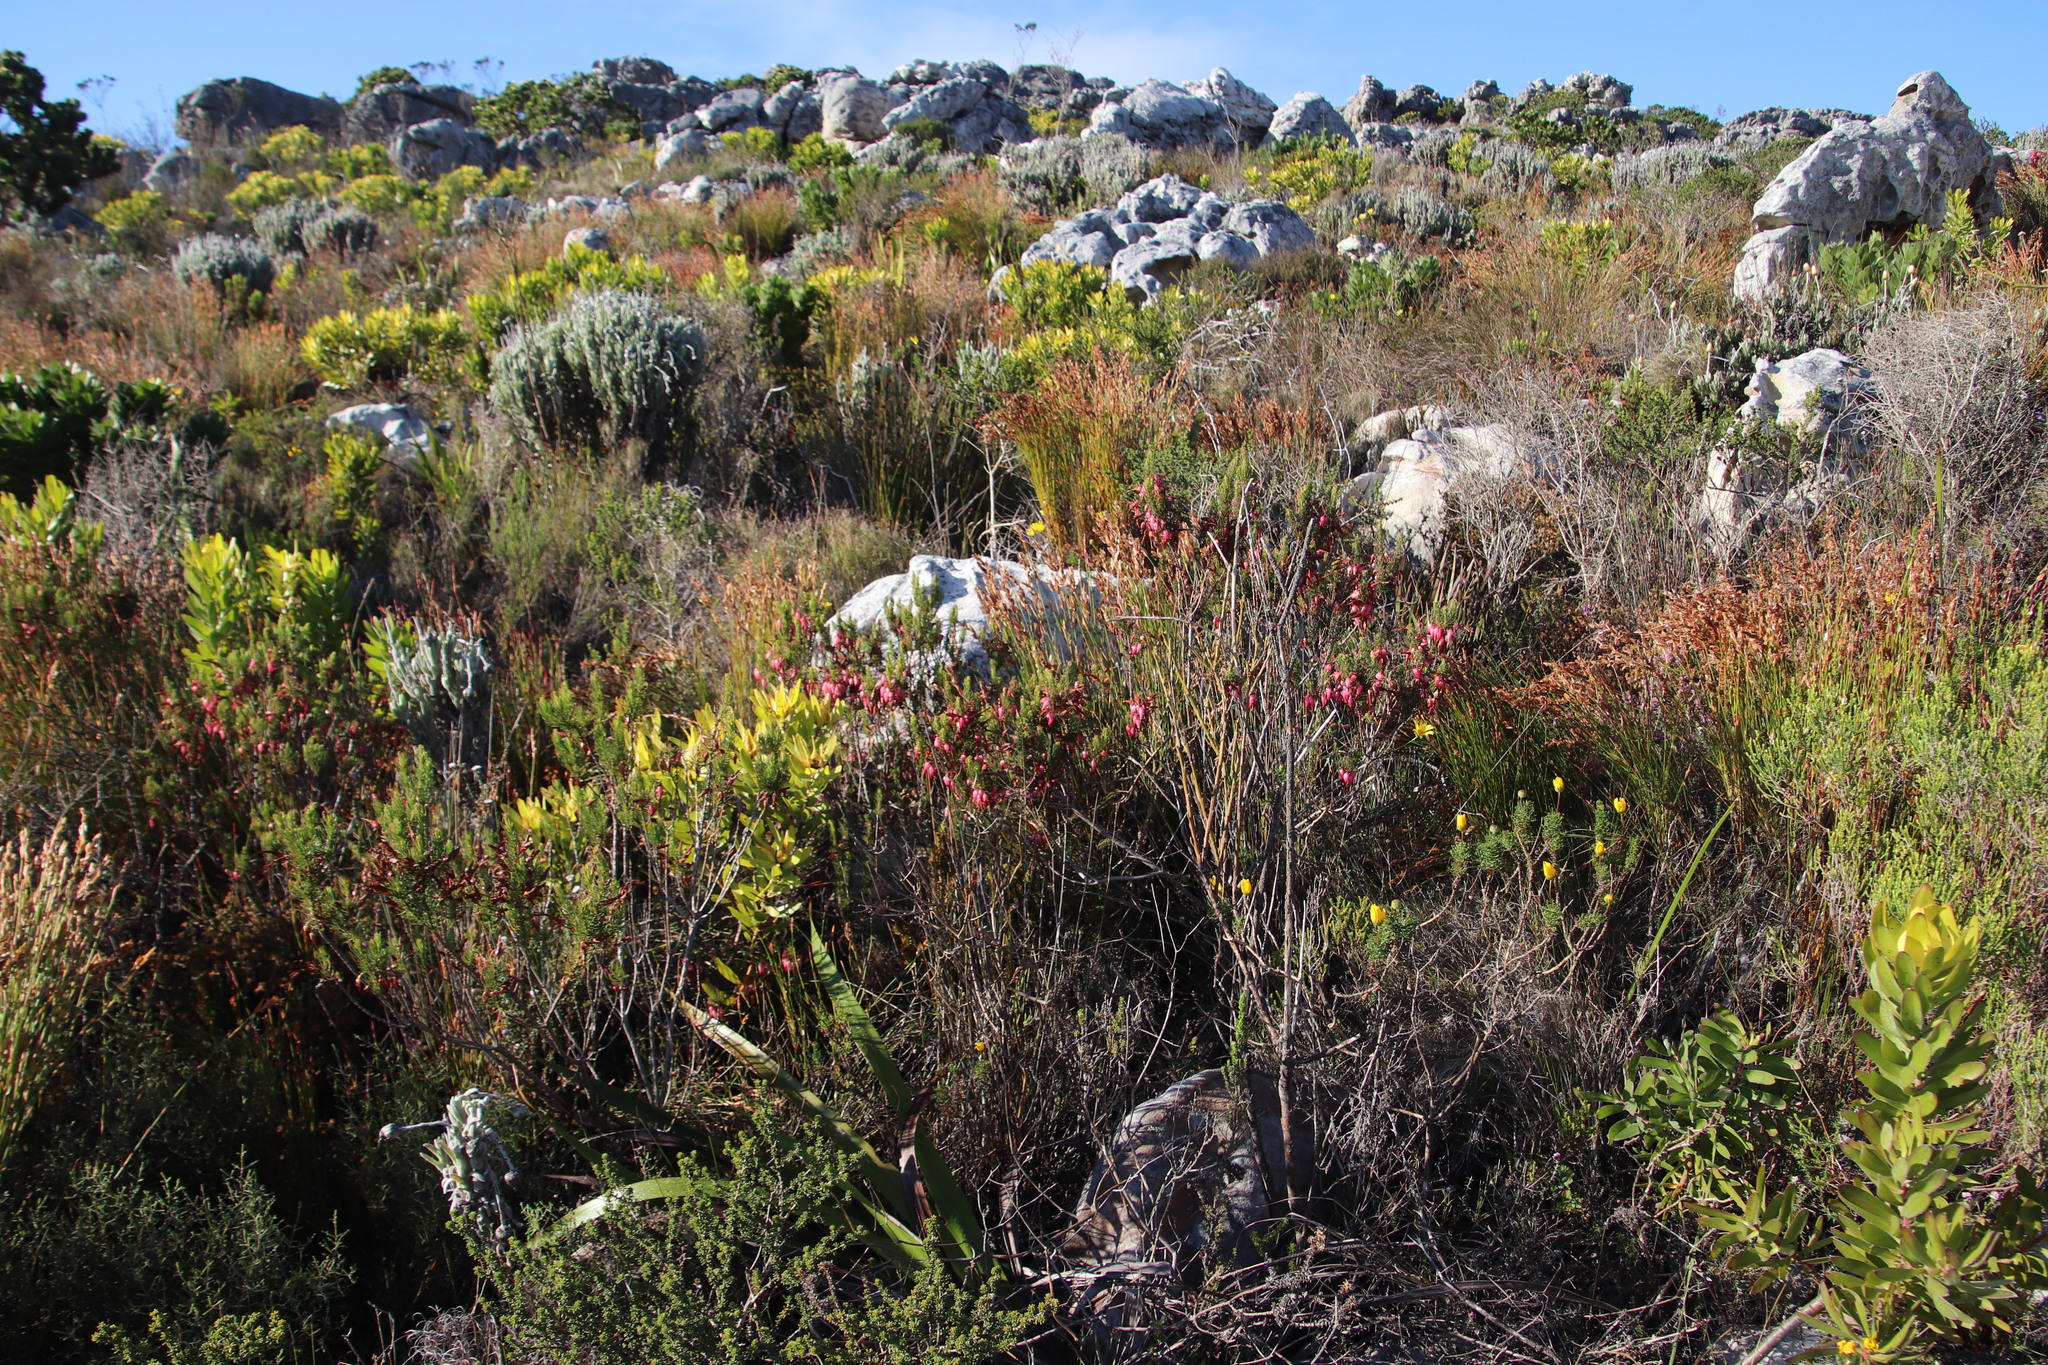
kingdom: Plantae
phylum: Tracheophyta
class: Magnoliopsida
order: Ericales
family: Ericaceae
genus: Erica
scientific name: Erica plukenetii
